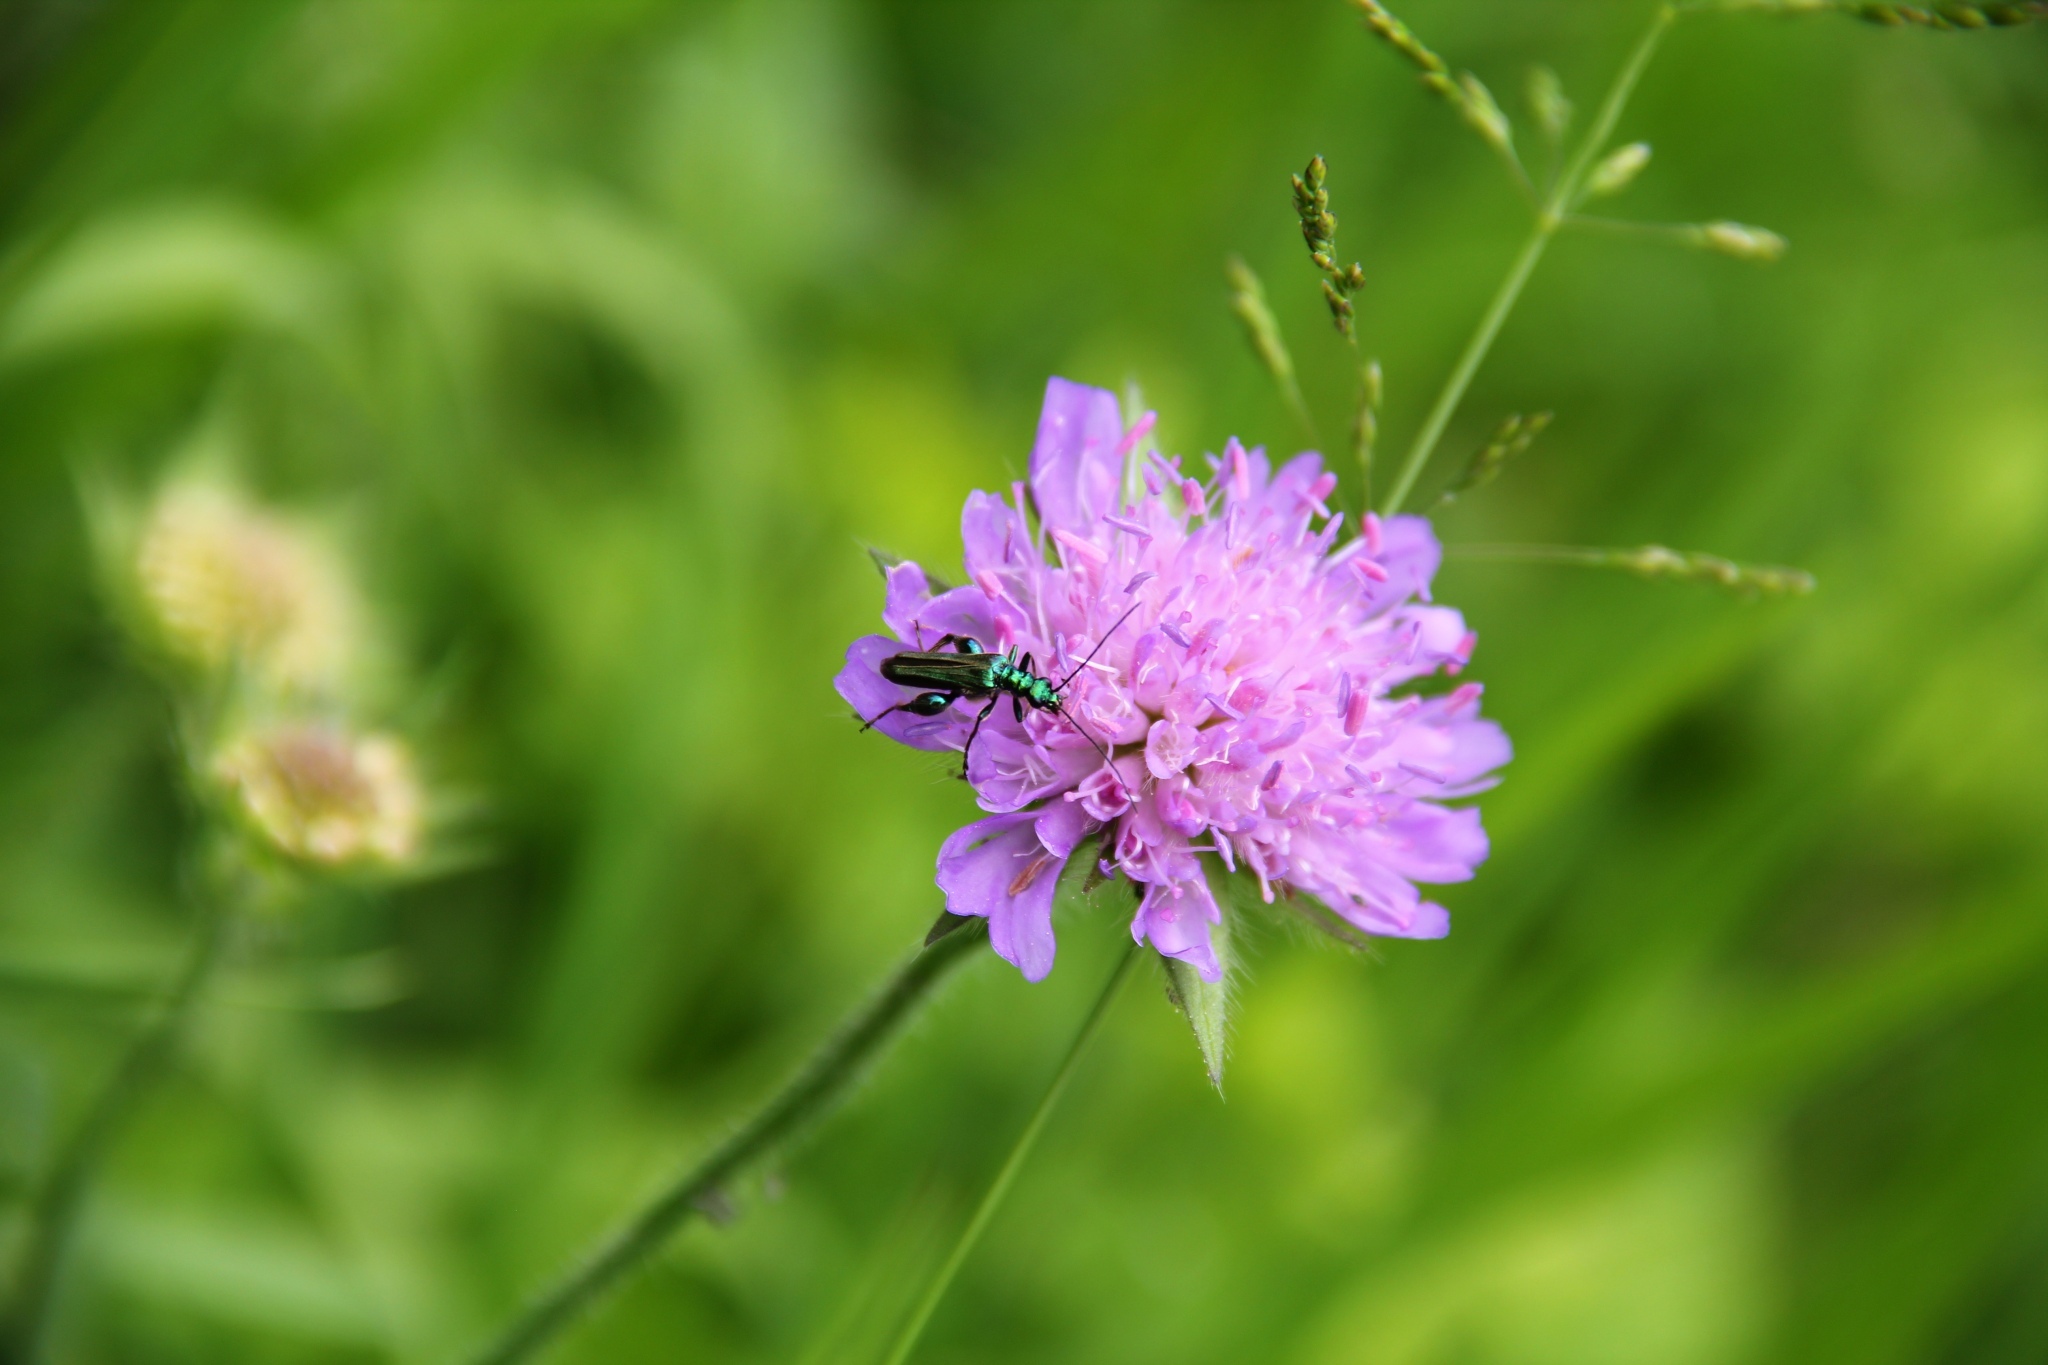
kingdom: Animalia
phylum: Arthropoda
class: Insecta
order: Coleoptera
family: Oedemeridae
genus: Oedemera
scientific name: Oedemera nobilis
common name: Swollen-thighed beetle
